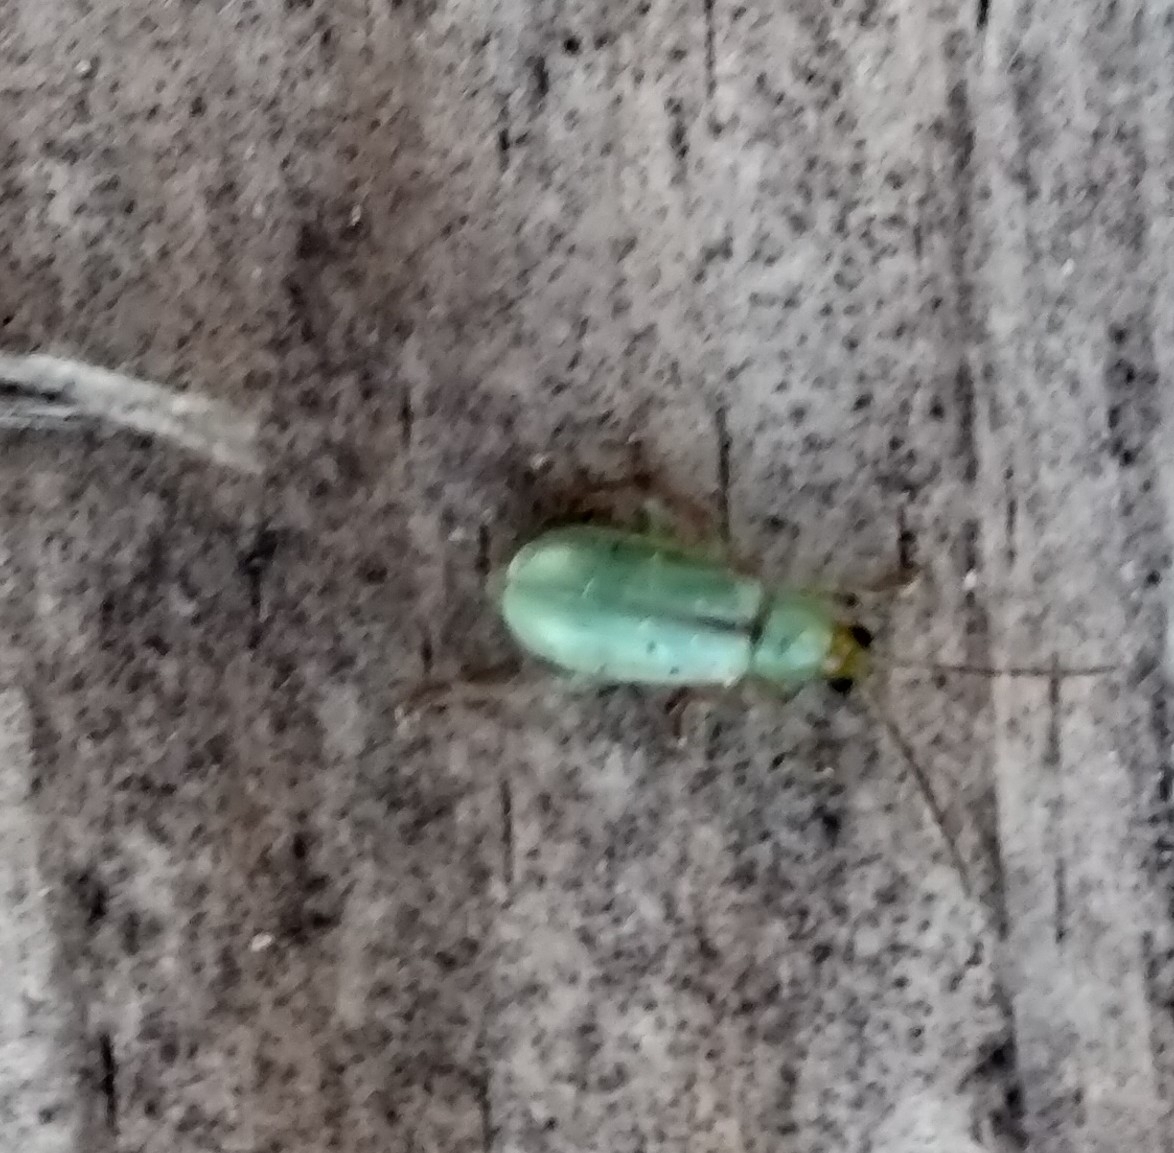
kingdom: Animalia
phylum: Arthropoda
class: Insecta
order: Coleoptera
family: Chrysomelidae
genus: Diabrotica
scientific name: Diabrotica barberi
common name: Northern corn rootworm
